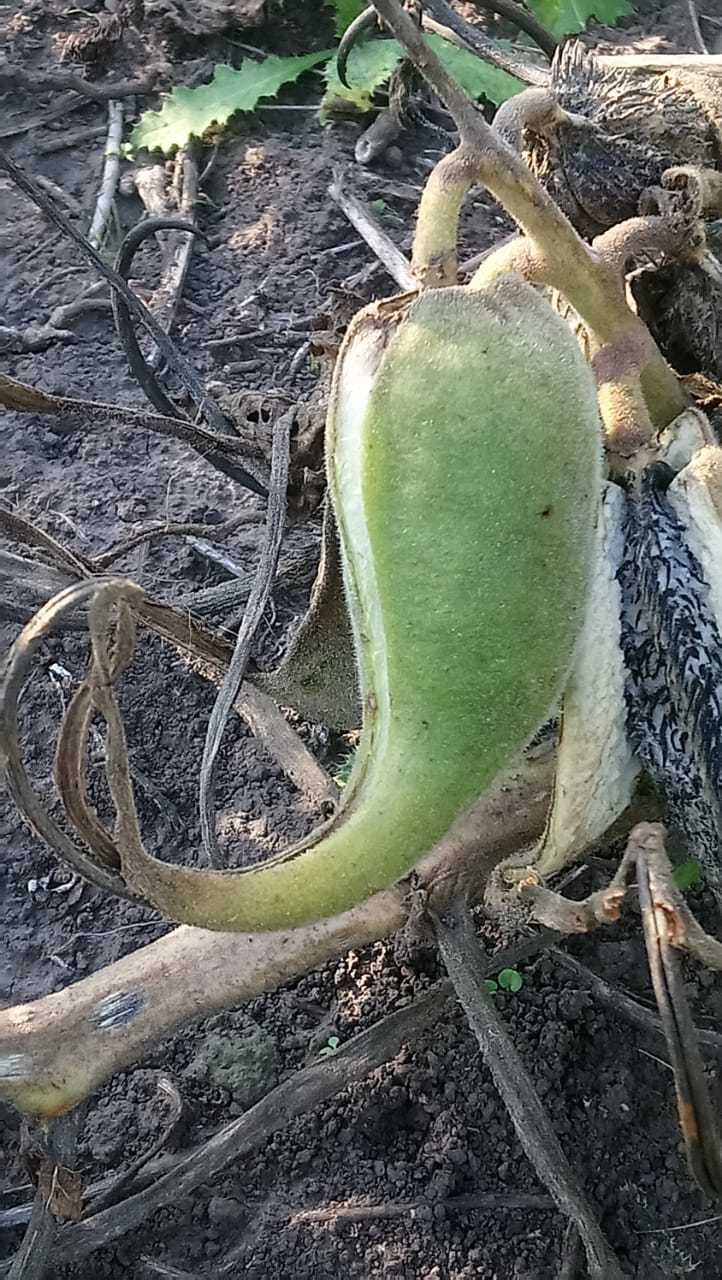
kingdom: Plantae
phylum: Tracheophyta
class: Magnoliopsida
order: Lamiales
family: Martyniaceae
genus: Ibicella
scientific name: Ibicella lutea
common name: Yellow unicorn-plant
